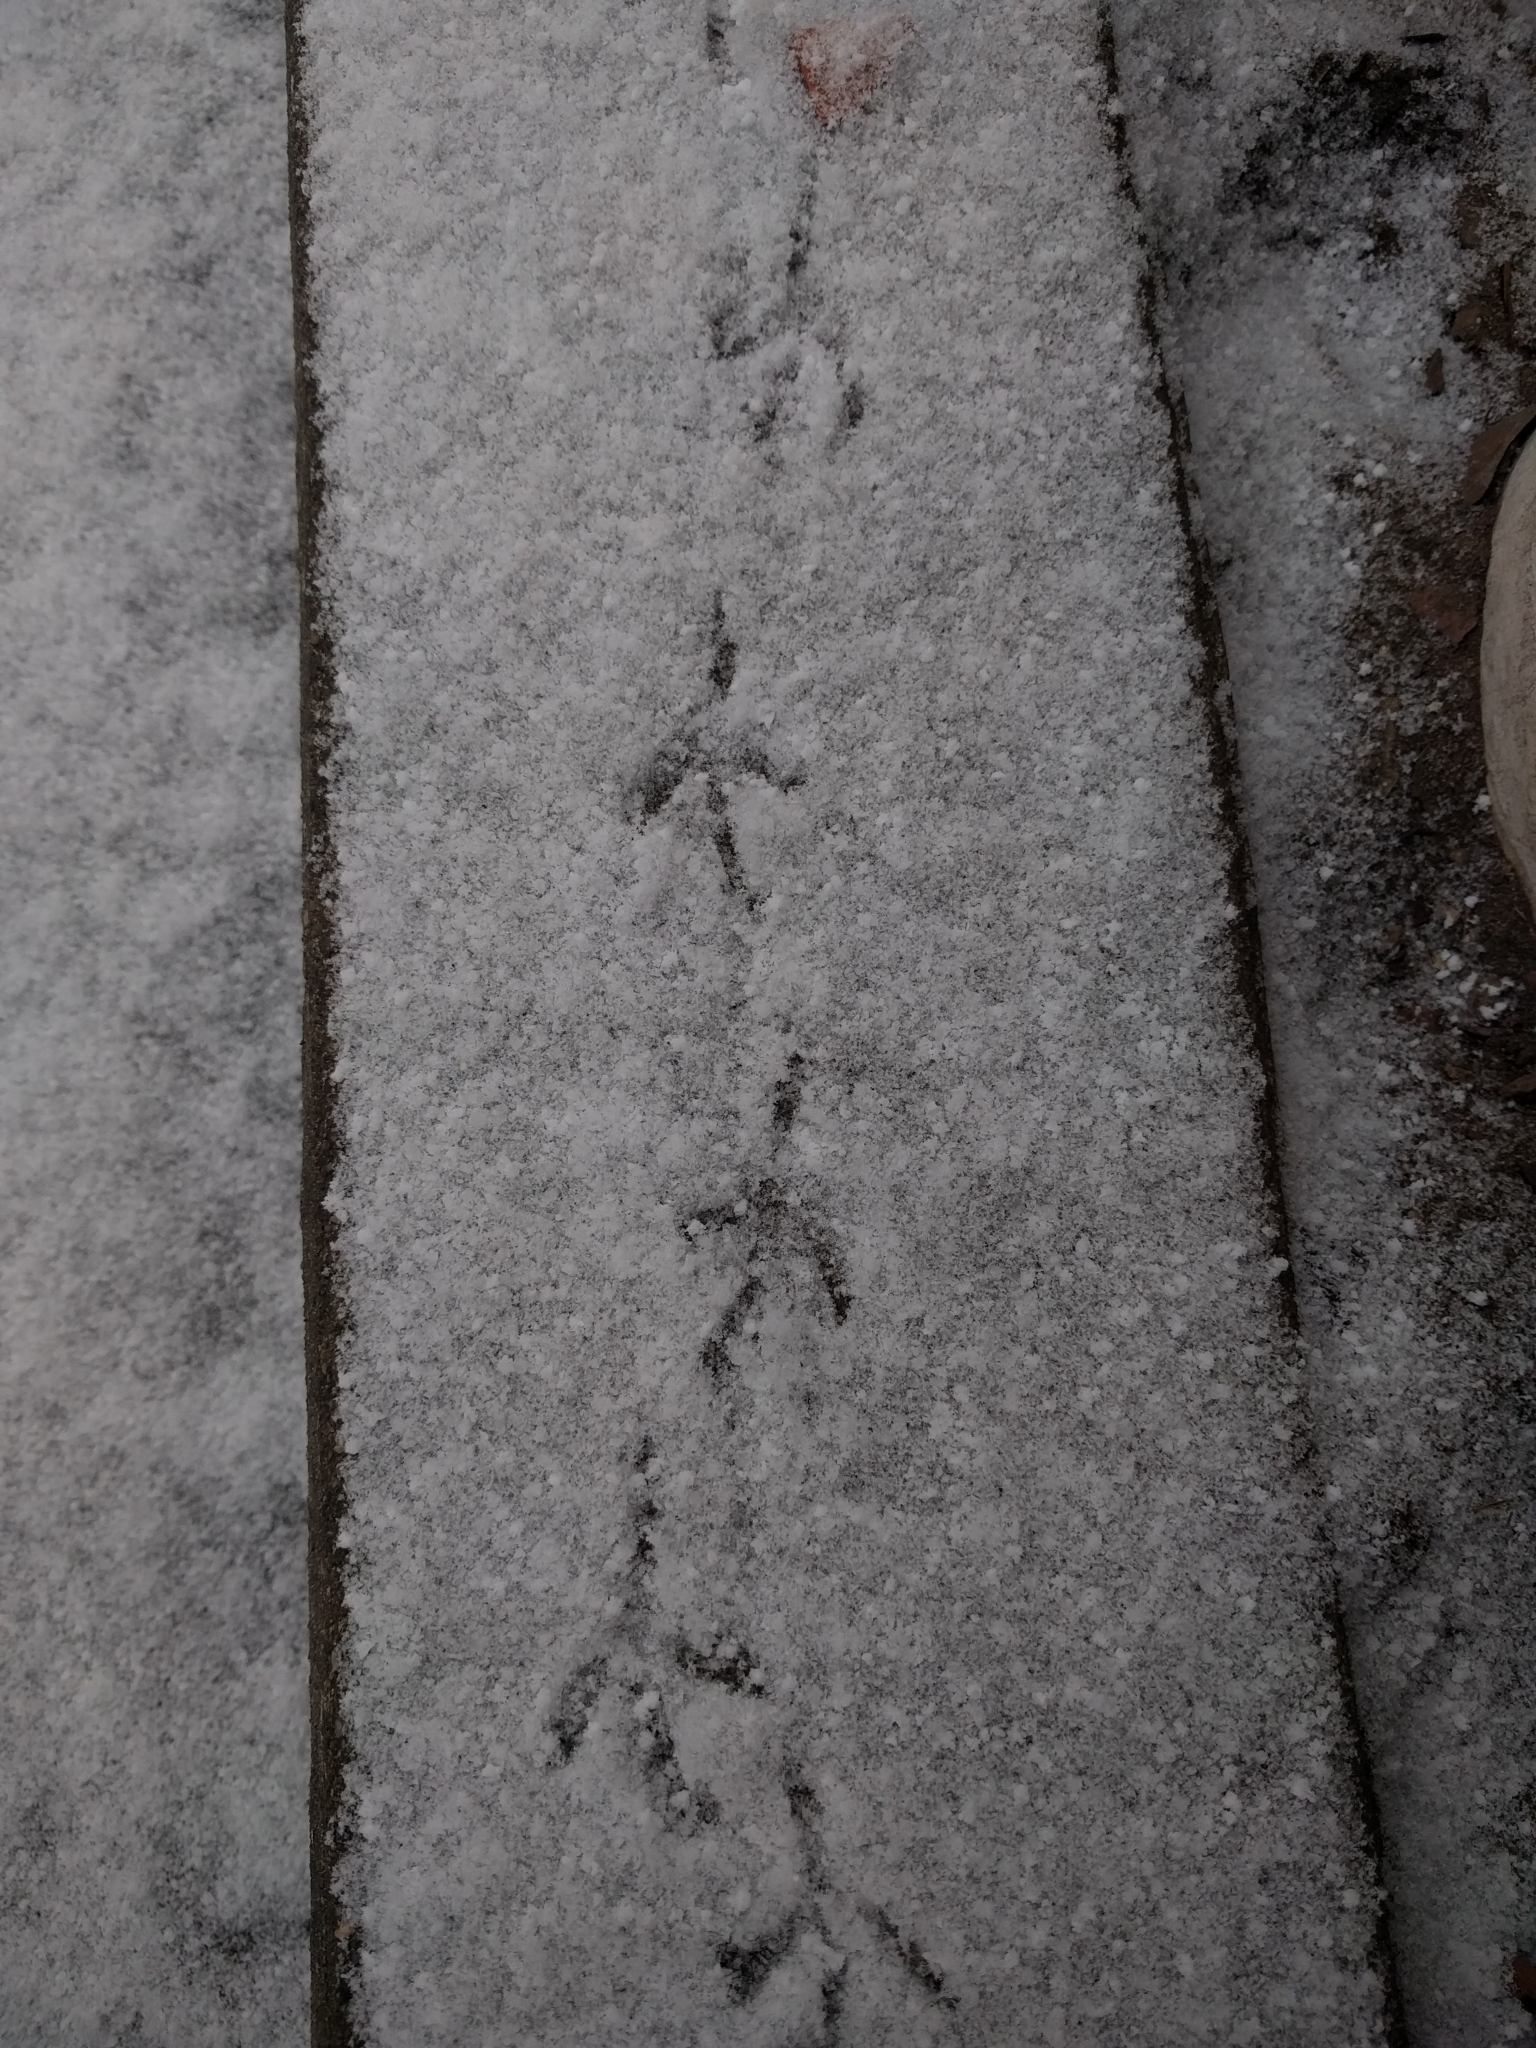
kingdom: Animalia
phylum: Chordata
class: Aves
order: Columbiformes
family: Columbidae
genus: Zenaida
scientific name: Zenaida macroura
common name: Mourning dove
